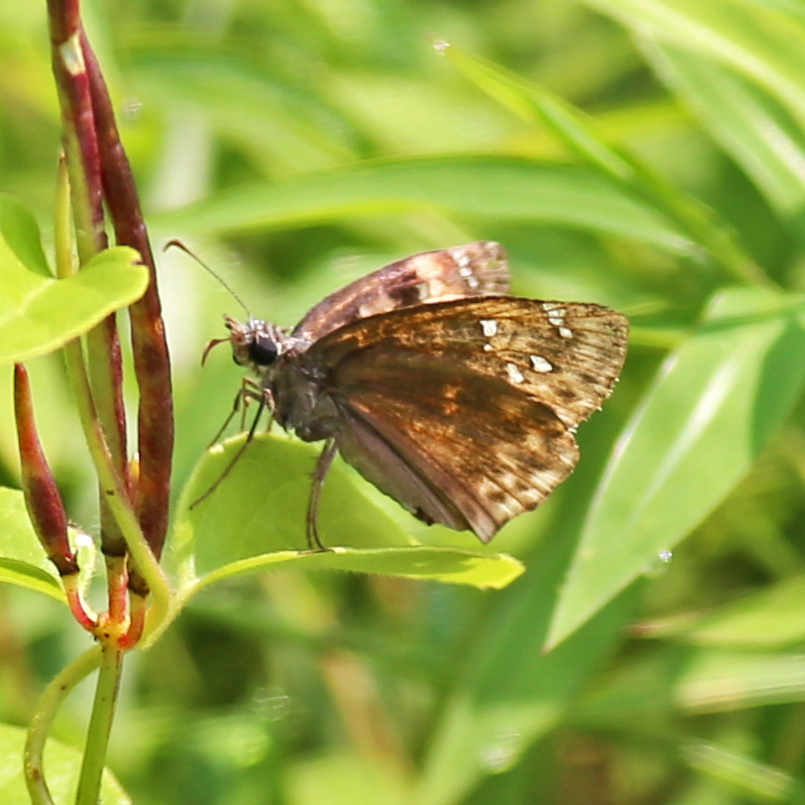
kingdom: Animalia
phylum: Arthropoda
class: Insecta
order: Lepidoptera
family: Hesperiidae
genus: Erynnis
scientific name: Erynnis horatius
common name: Horace's duskywing
